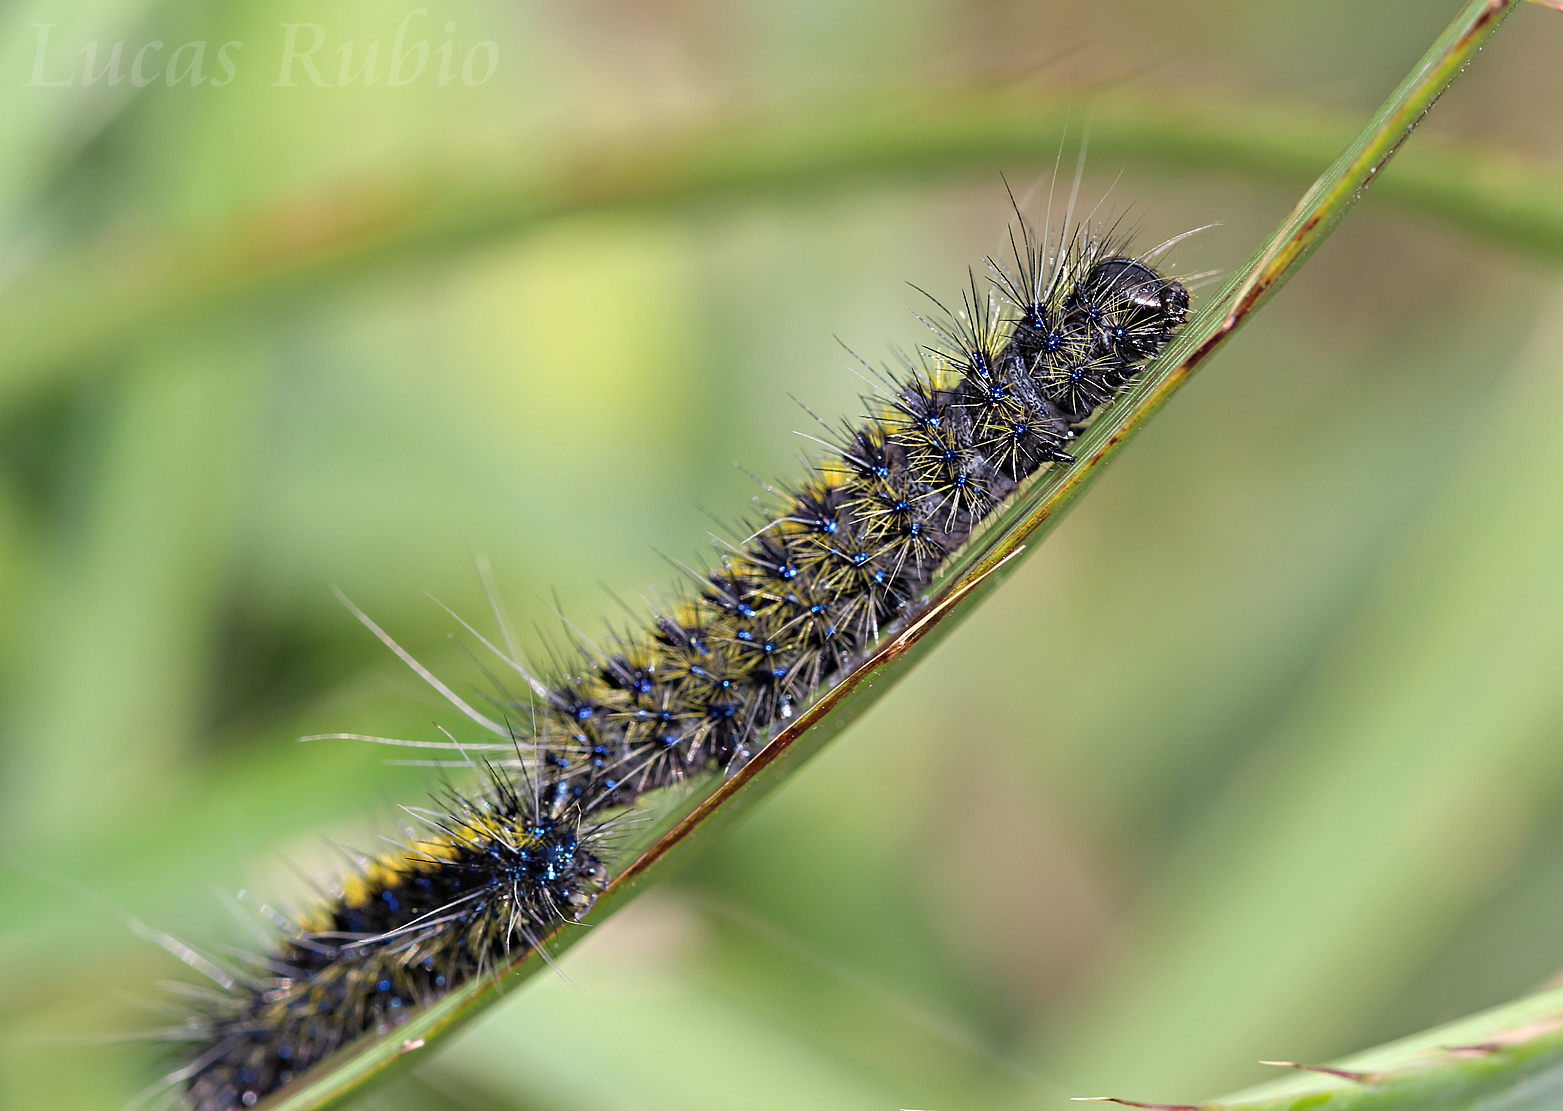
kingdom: Animalia
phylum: Arthropoda
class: Insecta
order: Lepidoptera
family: Erebidae
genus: Dysschema
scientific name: Dysschema centenaria
